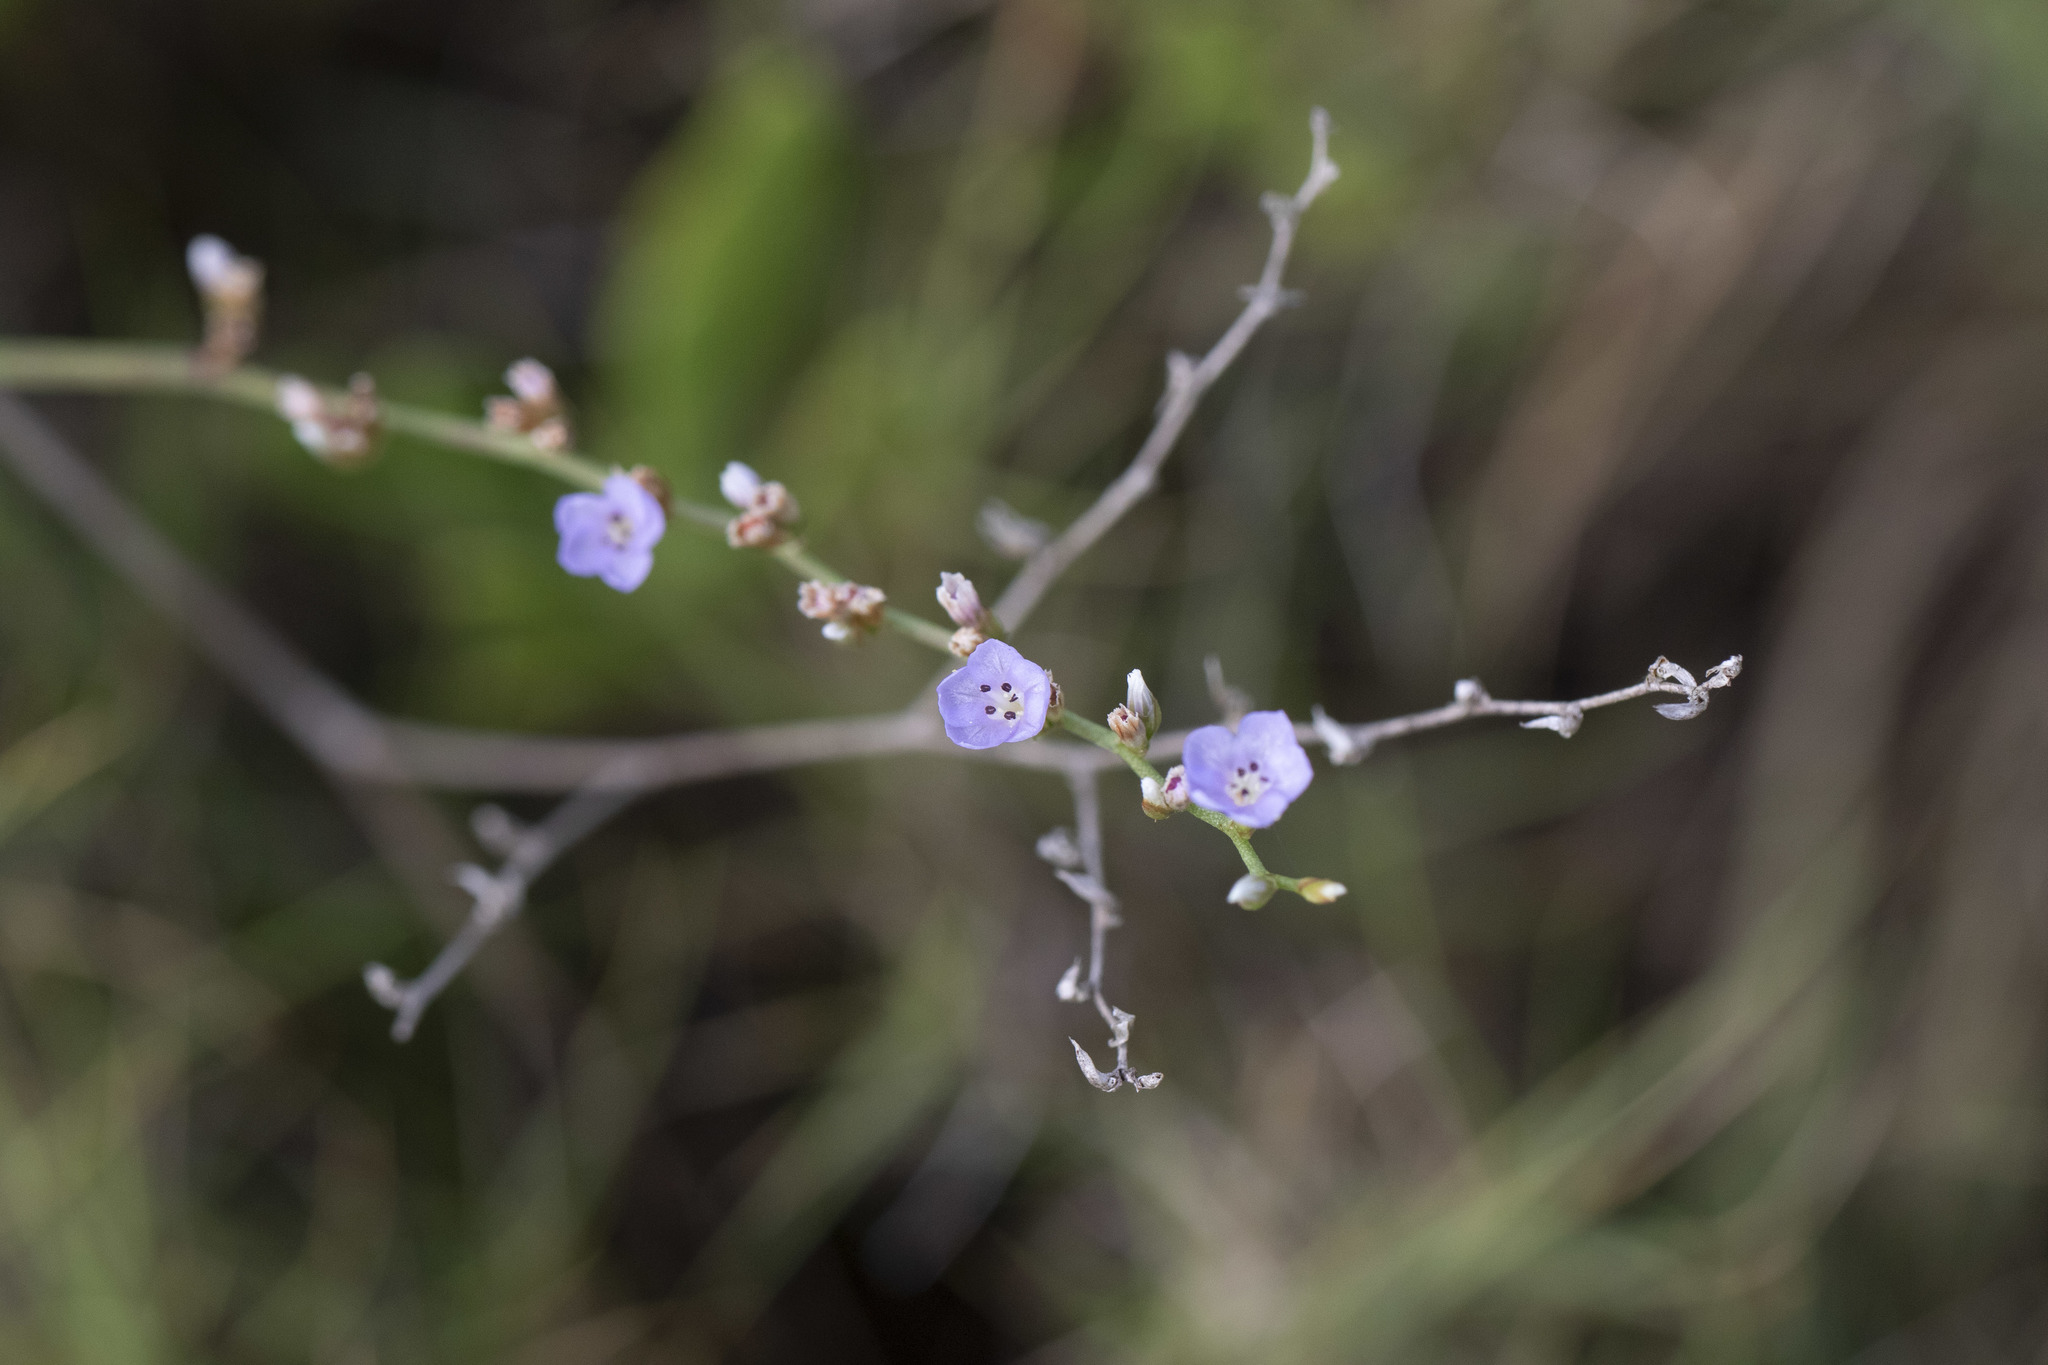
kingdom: Plantae
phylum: Tracheophyta
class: Magnoliopsida
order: Caryophyllales
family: Plumbaginaceae
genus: Limonium
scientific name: Limonium carolinianum
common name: Carolina sea lavender
